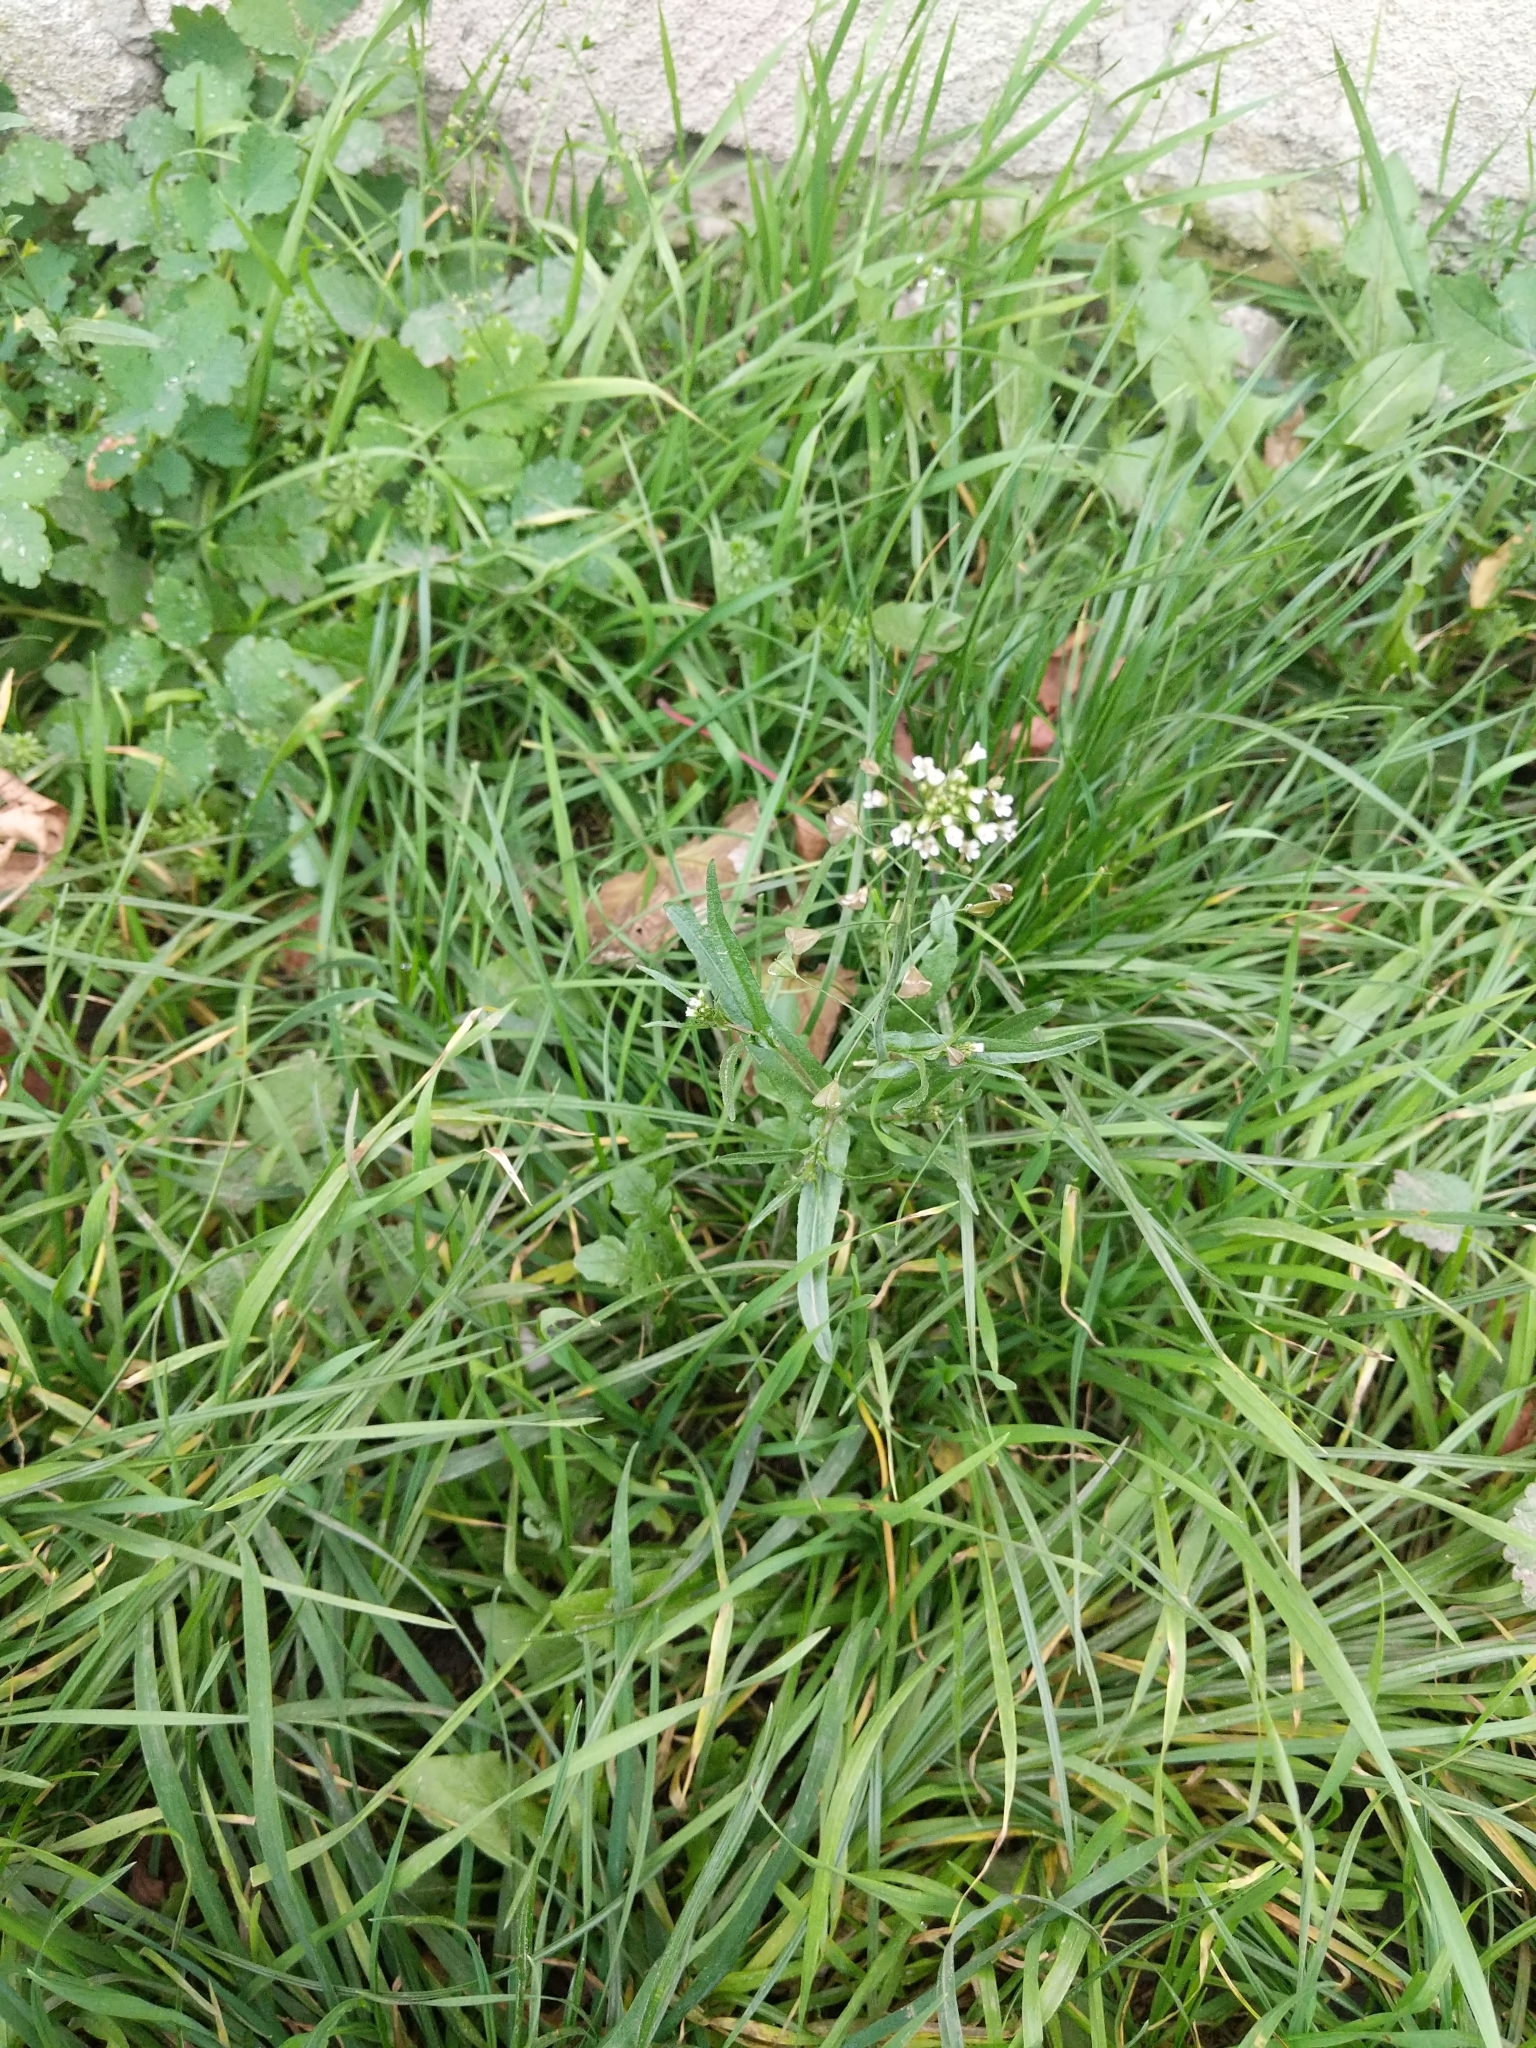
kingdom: Plantae
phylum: Tracheophyta
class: Magnoliopsida
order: Brassicales
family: Brassicaceae
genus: Capsella
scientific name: Capsella bursa-pastoris
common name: Shepherd's purse
